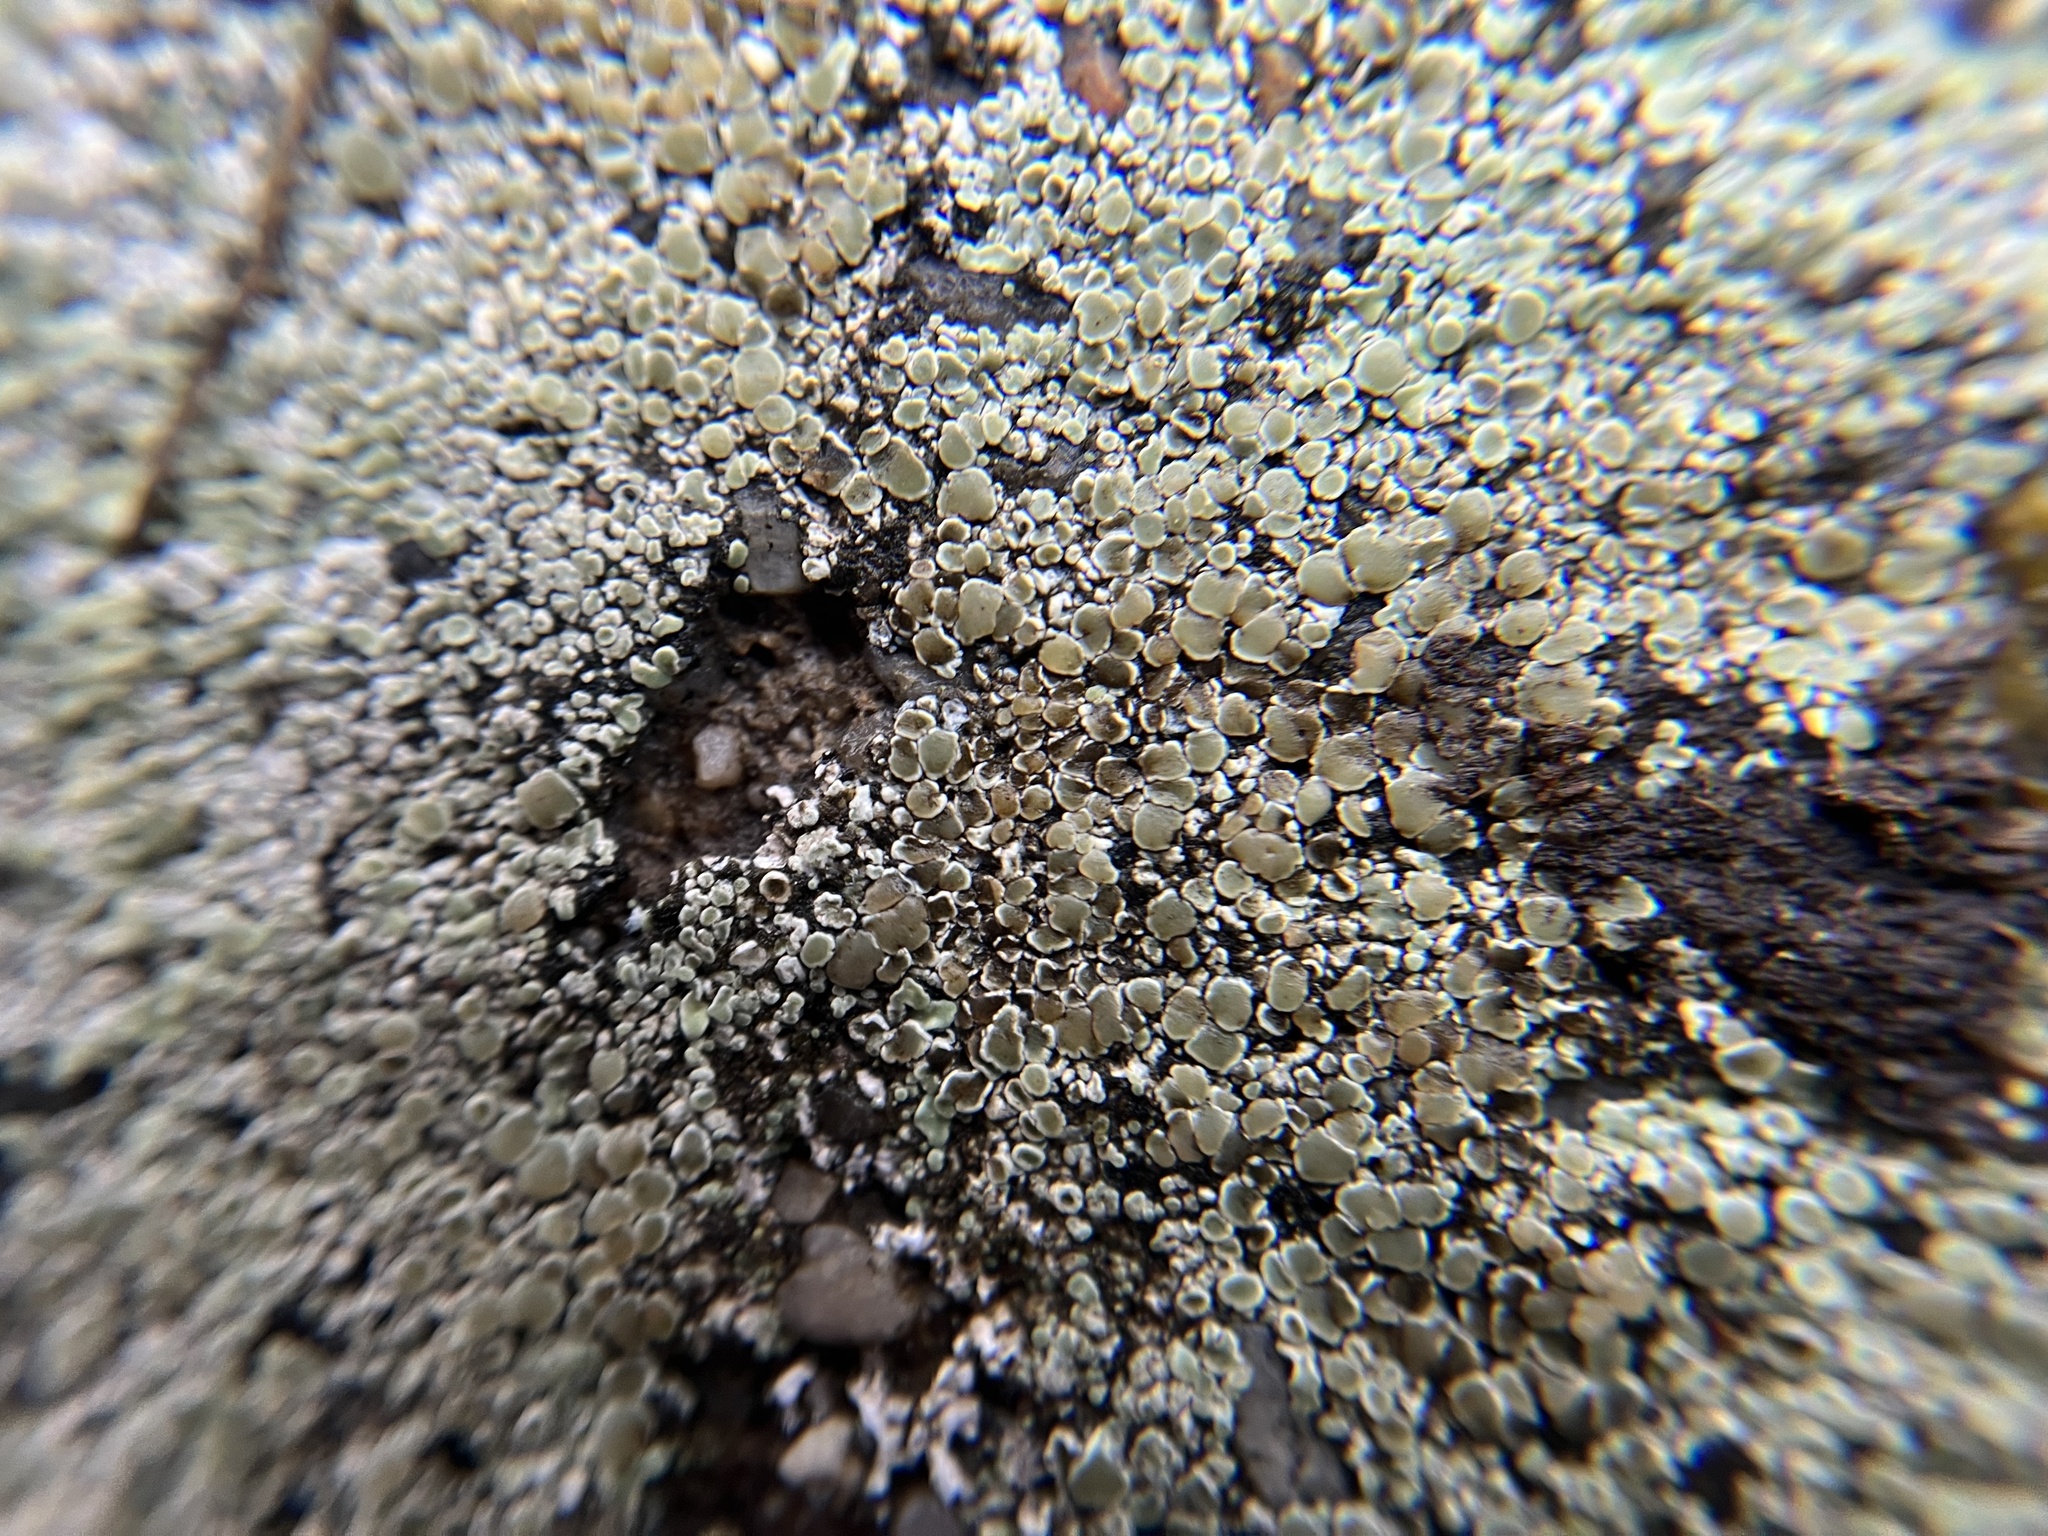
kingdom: Fungi
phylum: Ascomycota
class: Lecanoromycetes
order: Lecanorales
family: Lecanoraceae
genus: Protoparmeliopsis
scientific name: Protoparmeliopsis muralis
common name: Stonewall rim lichen
